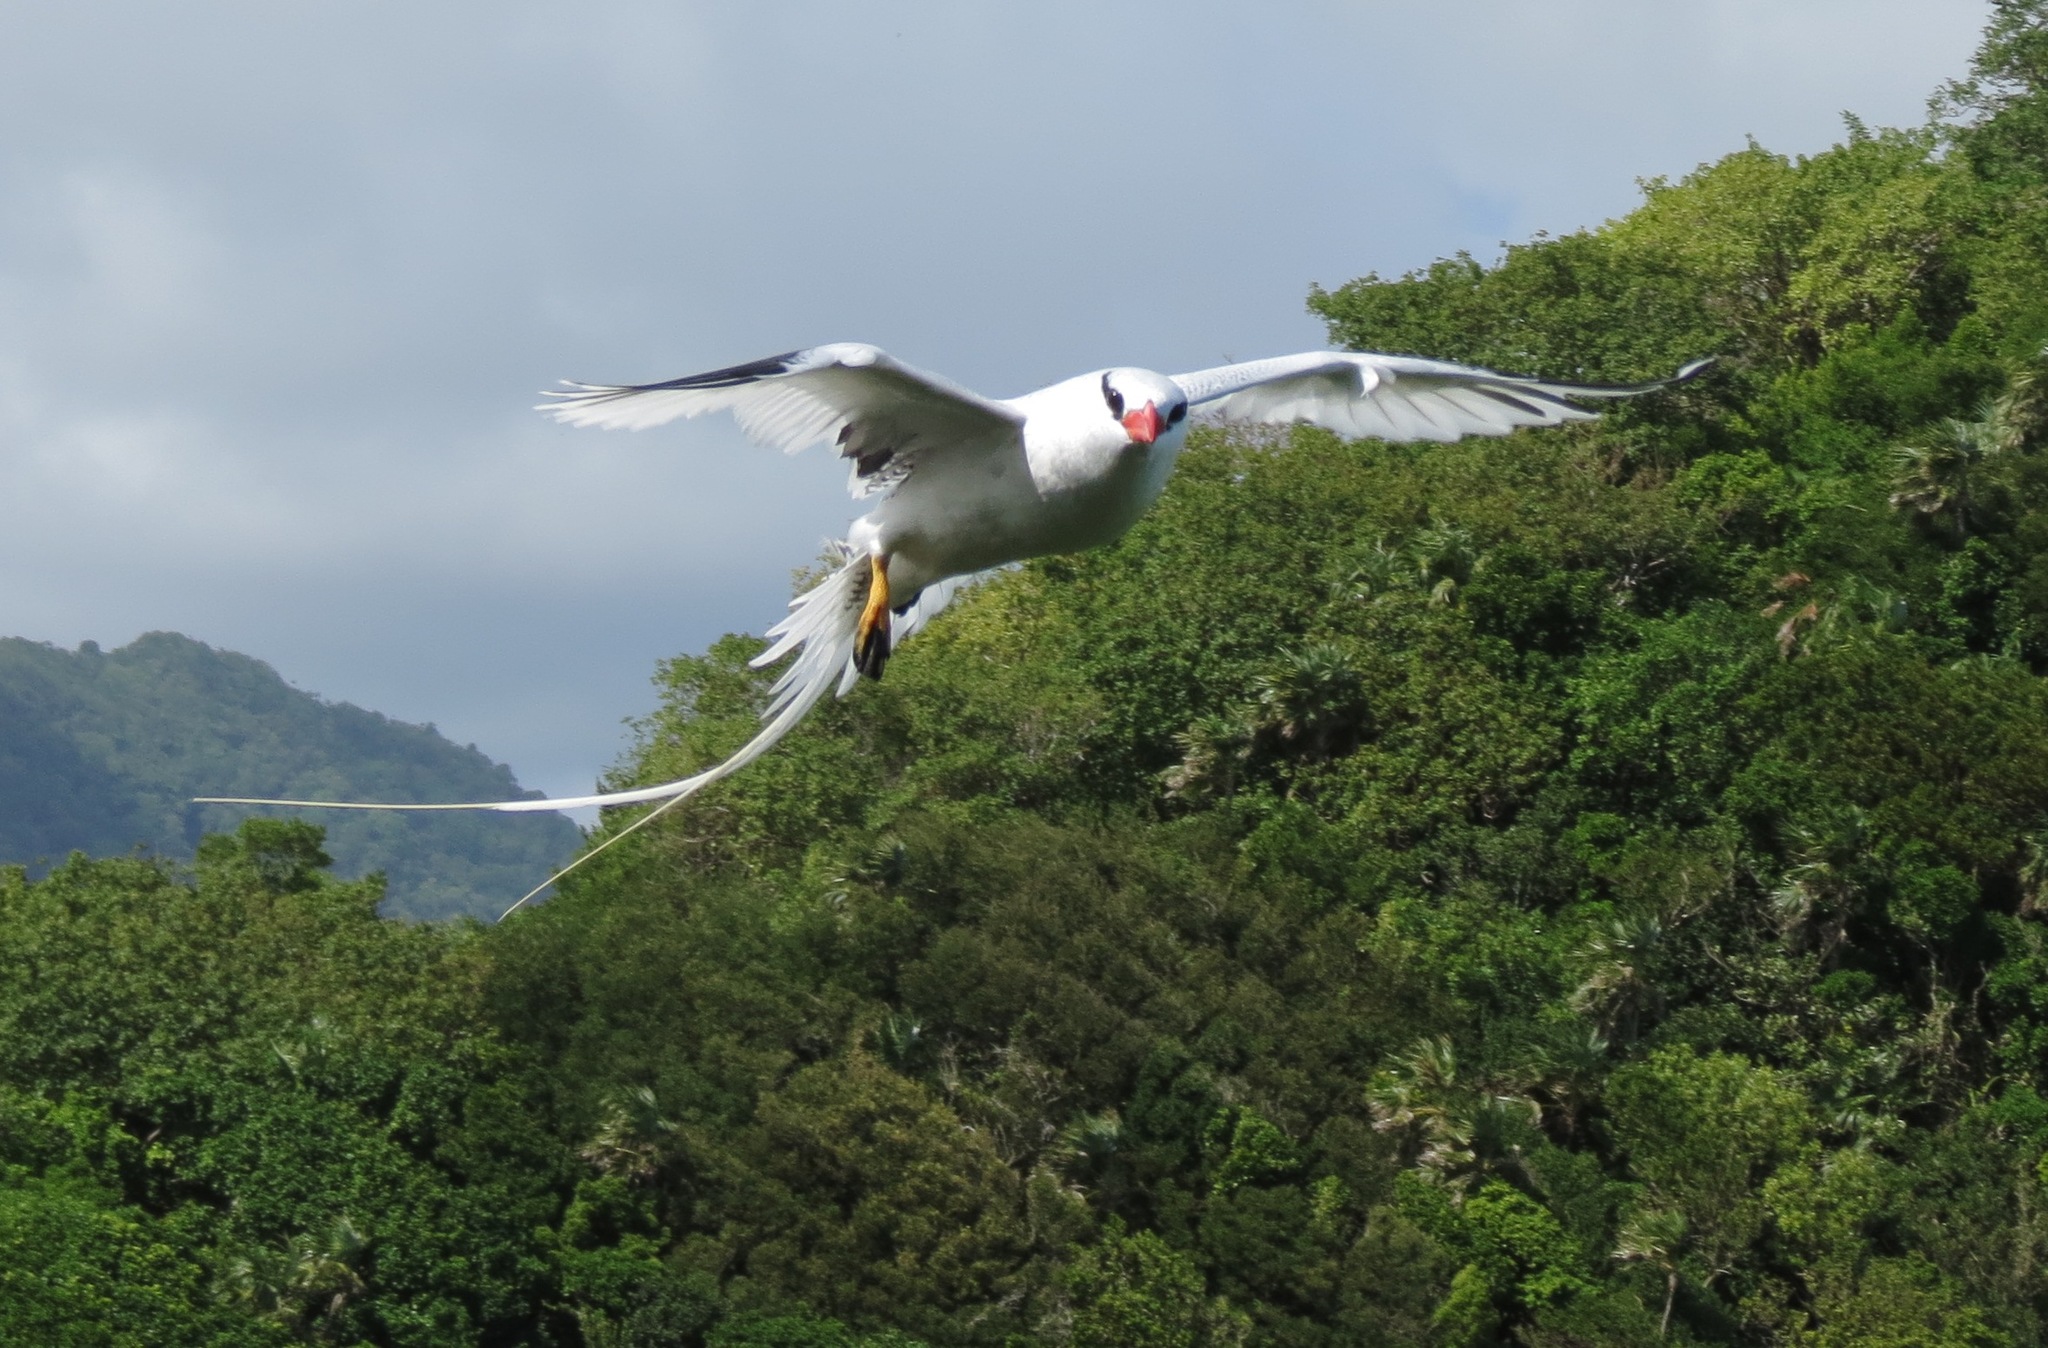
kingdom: Animalia
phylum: Chordata
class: Aves
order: Phaethontiformes
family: Phaethontidae
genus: Phaethon
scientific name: Phaethon aethereus
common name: Red-billed tropicbird
